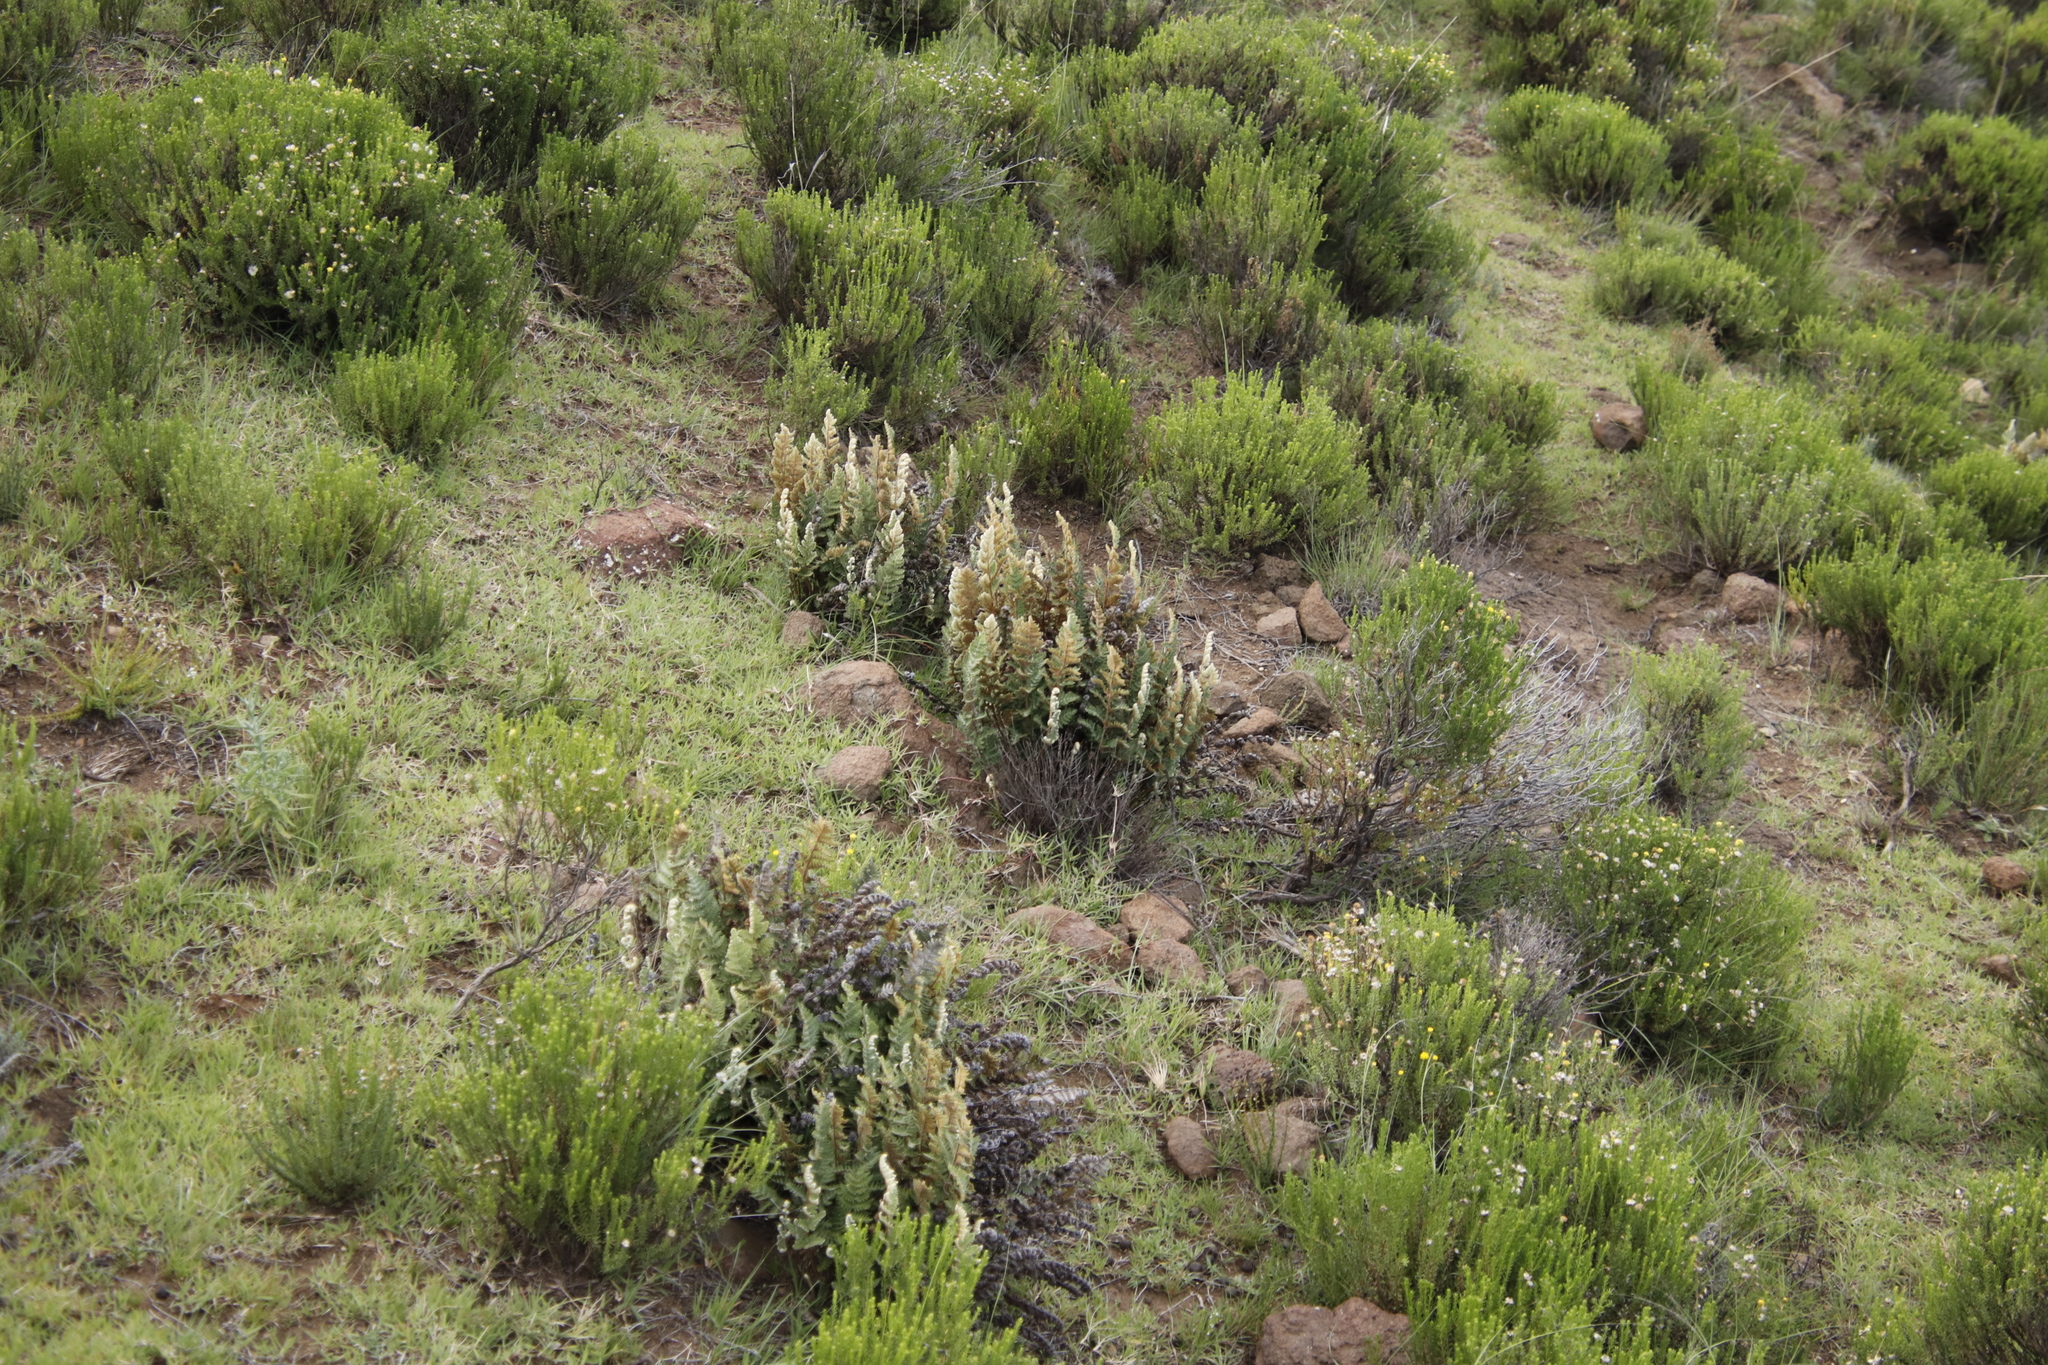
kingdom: Plantae
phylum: Tracheophyta
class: Polypodiopsida
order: Polypodiales
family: Pteridaceae
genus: Cheilanthes
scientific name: Cheilanthes eckloniana
